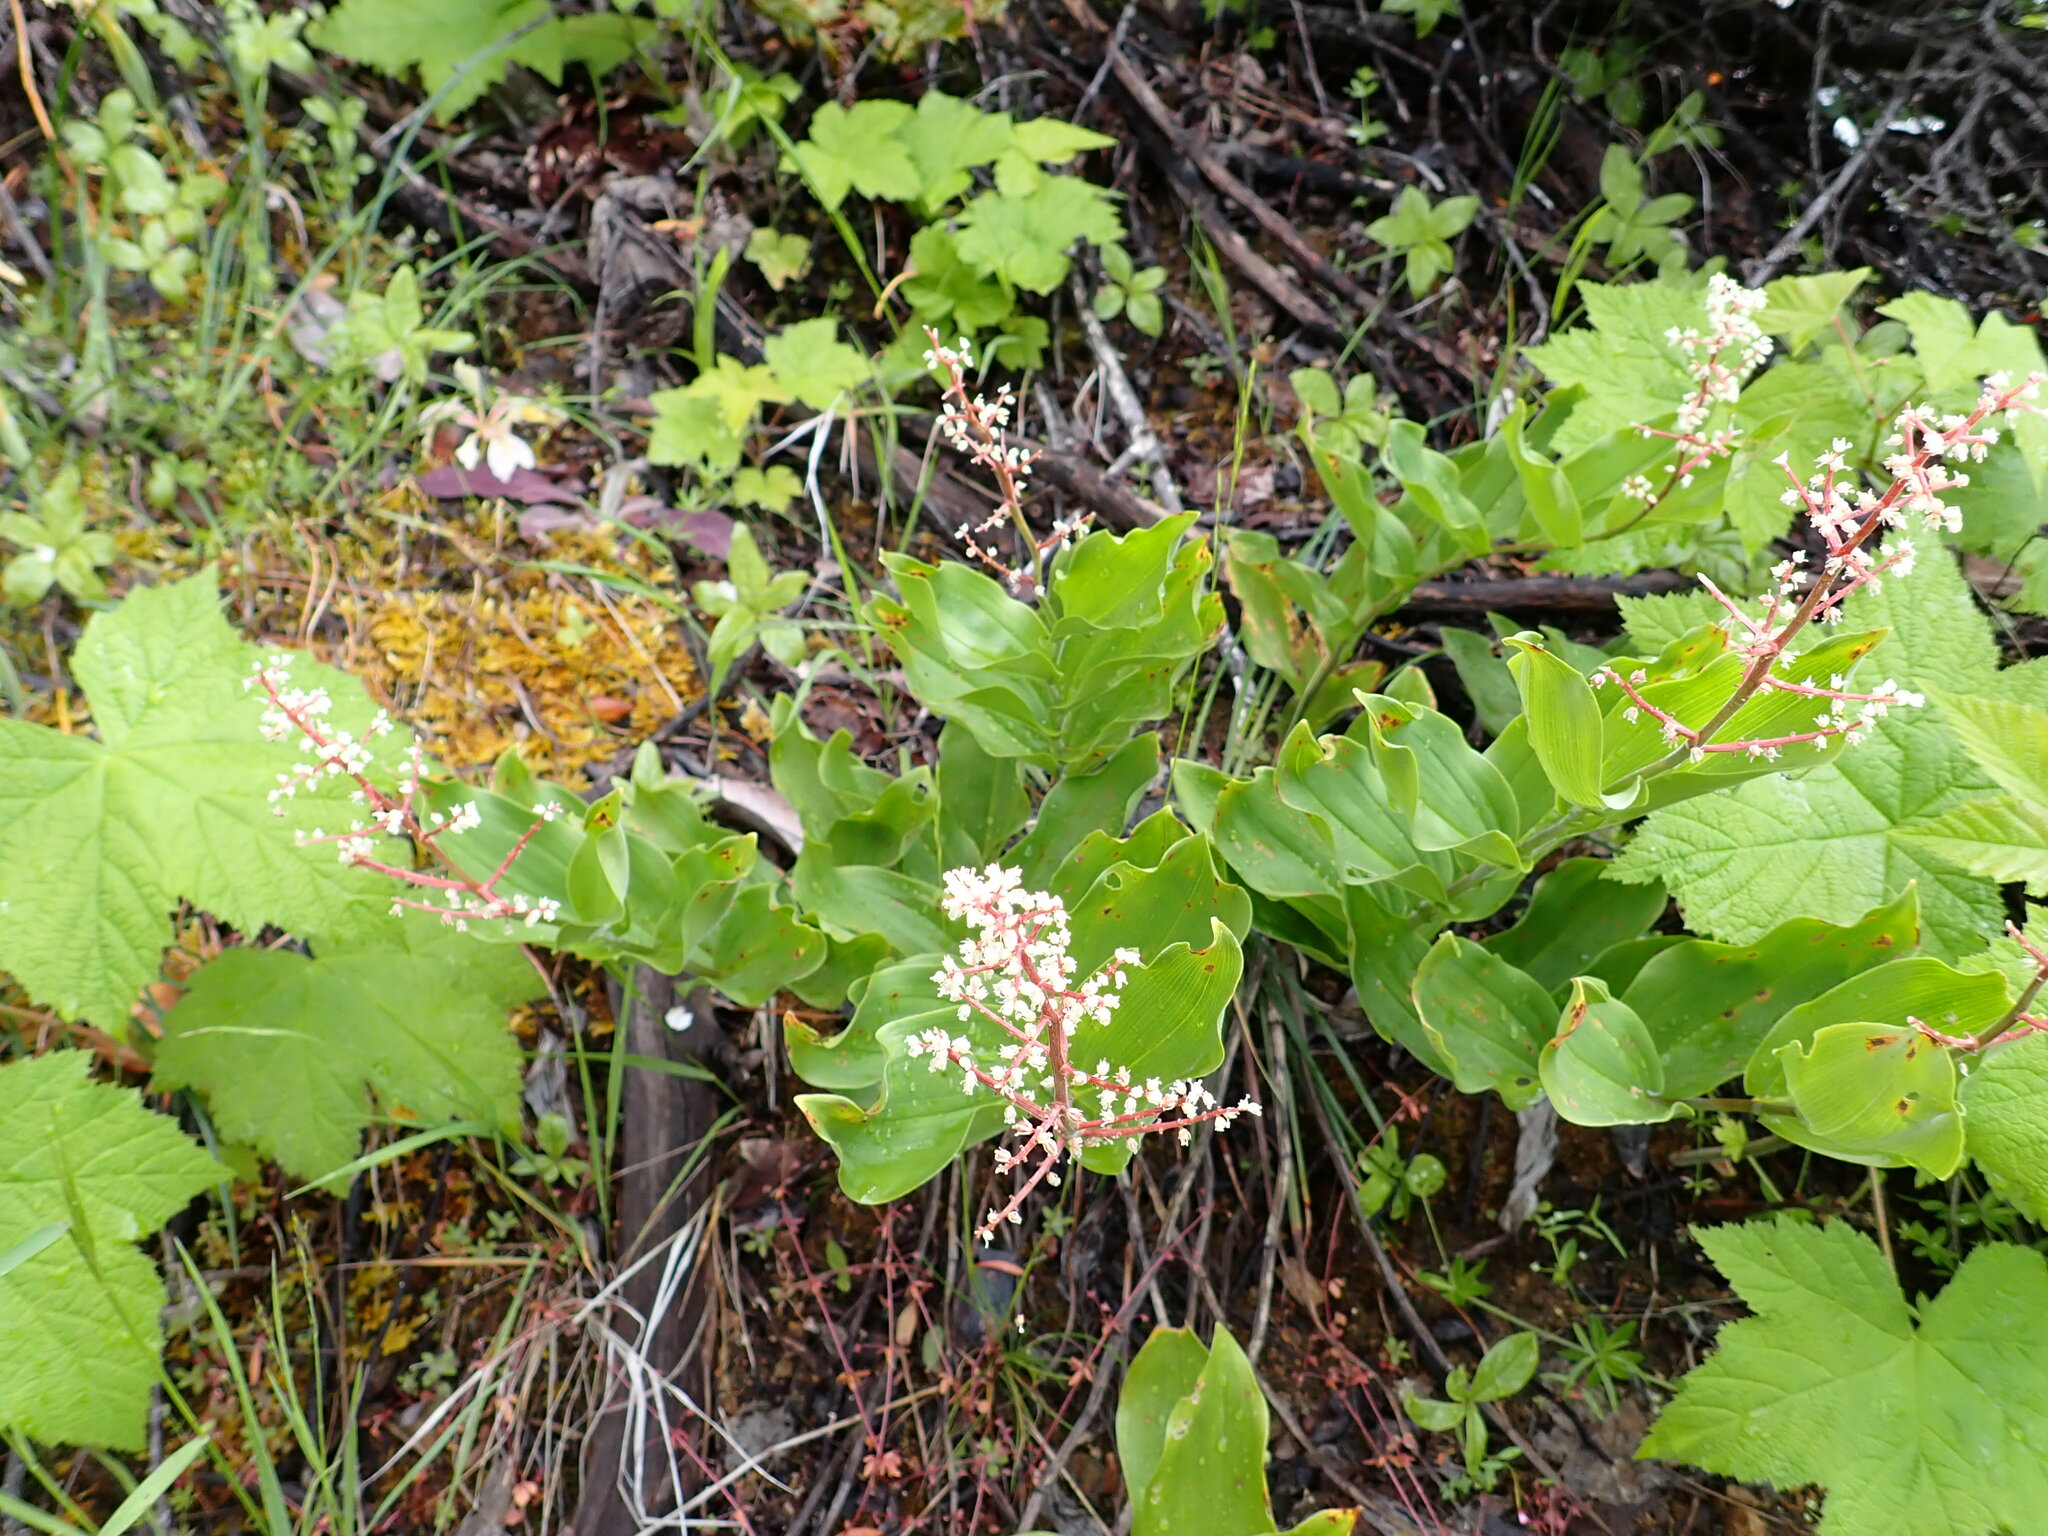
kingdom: Plantae
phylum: Tracheophyta
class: Liliopsida
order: Asparagales
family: Asparagaceae
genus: Maianthemum
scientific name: Maianthemum racemosum
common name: False spikenard
